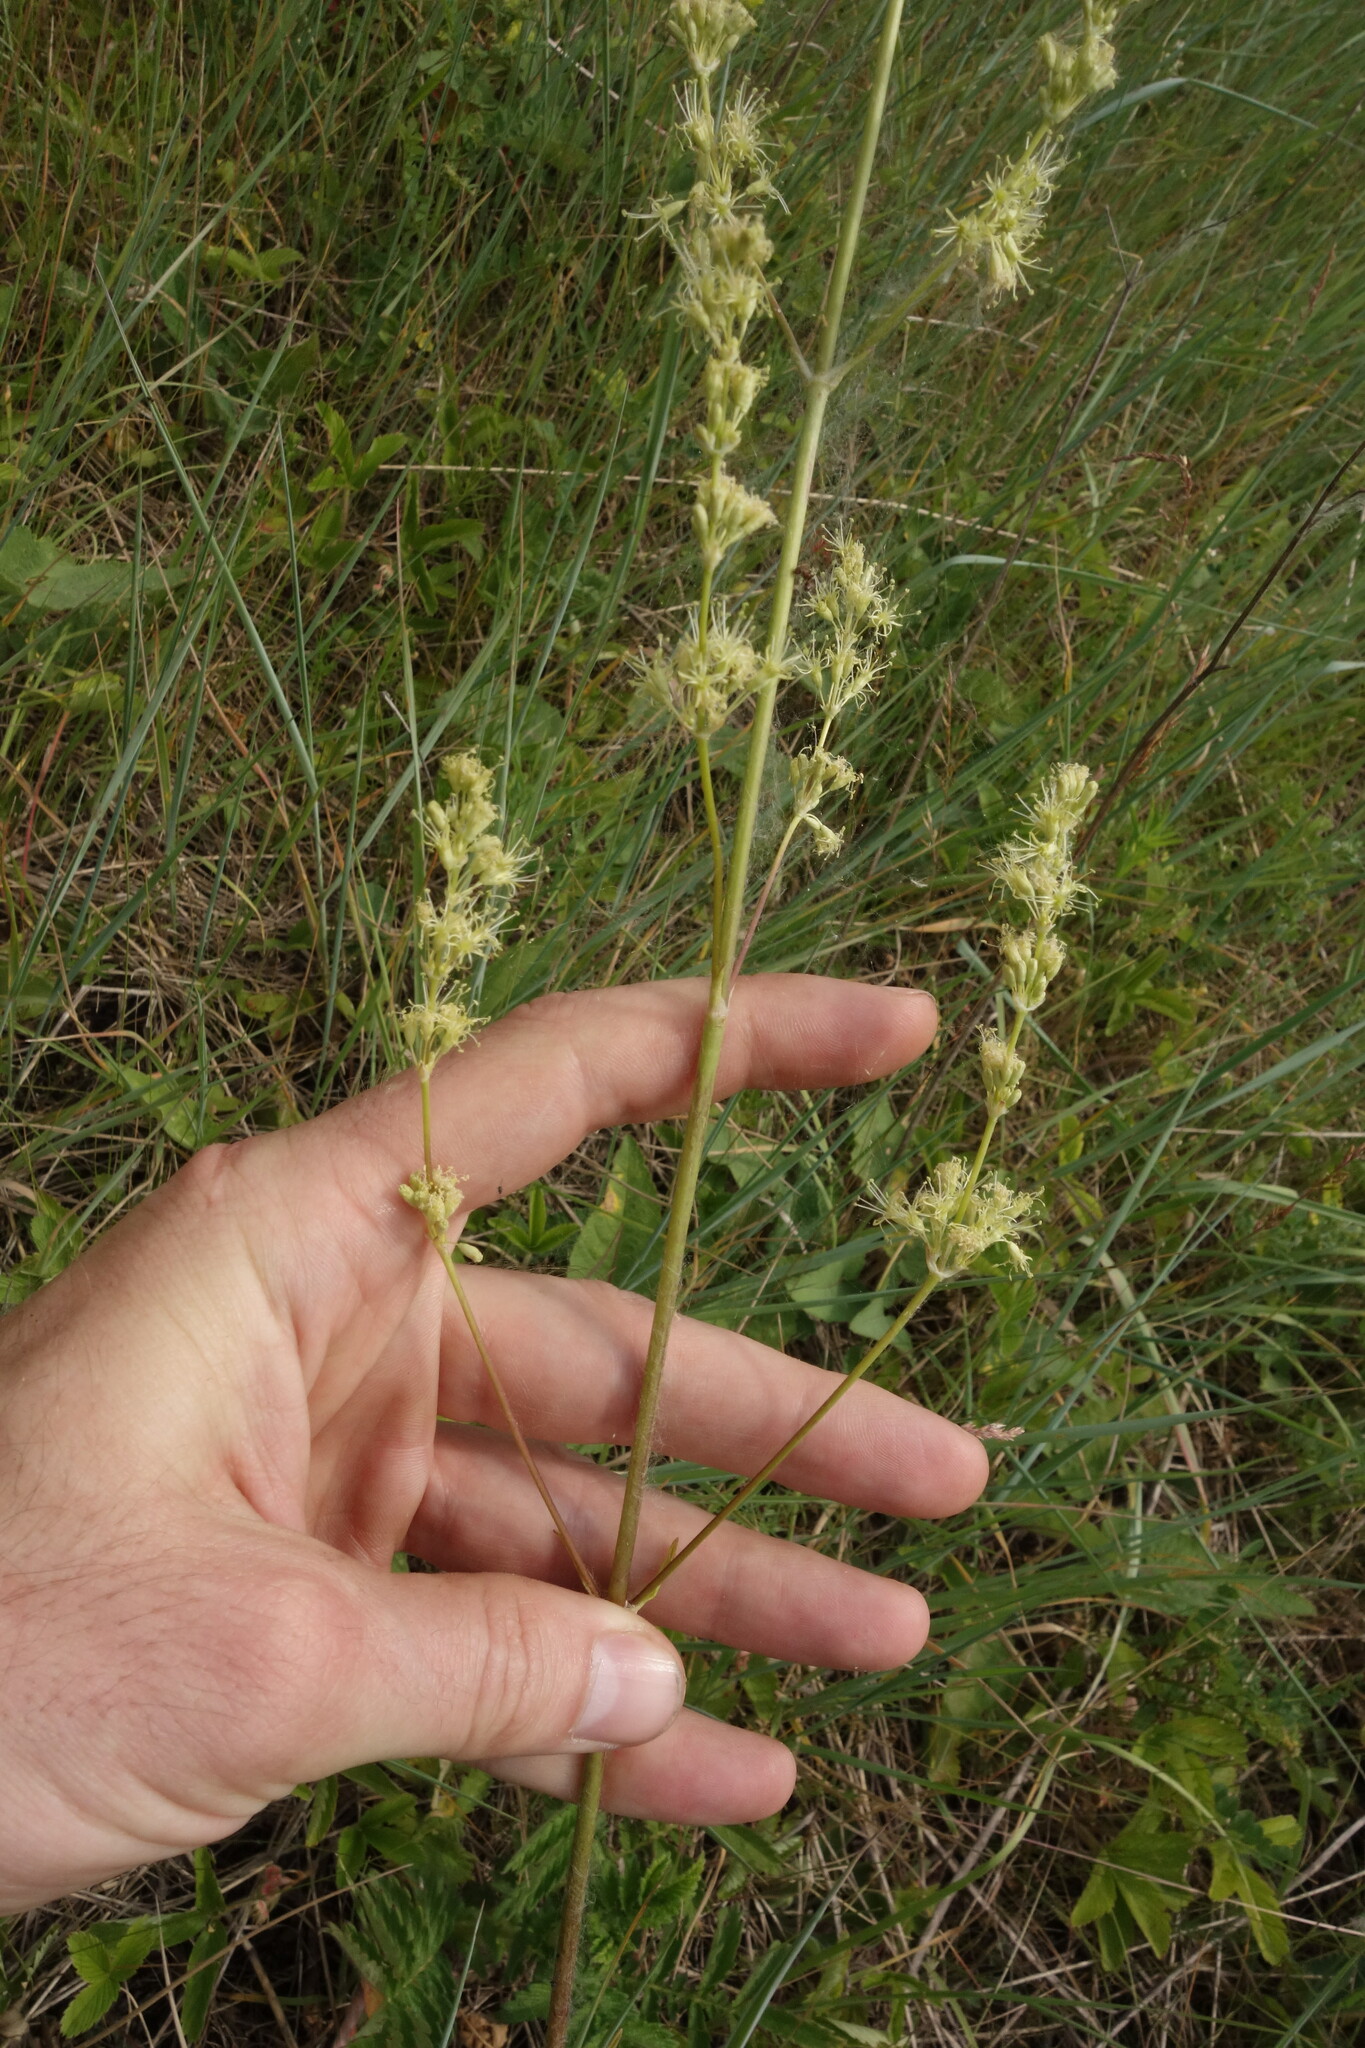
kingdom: Plantae
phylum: Tracheophyta
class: Magnoliopsida
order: Caryophyllales
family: Caryophyllaceae
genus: Silene
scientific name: Silene chersonensis
